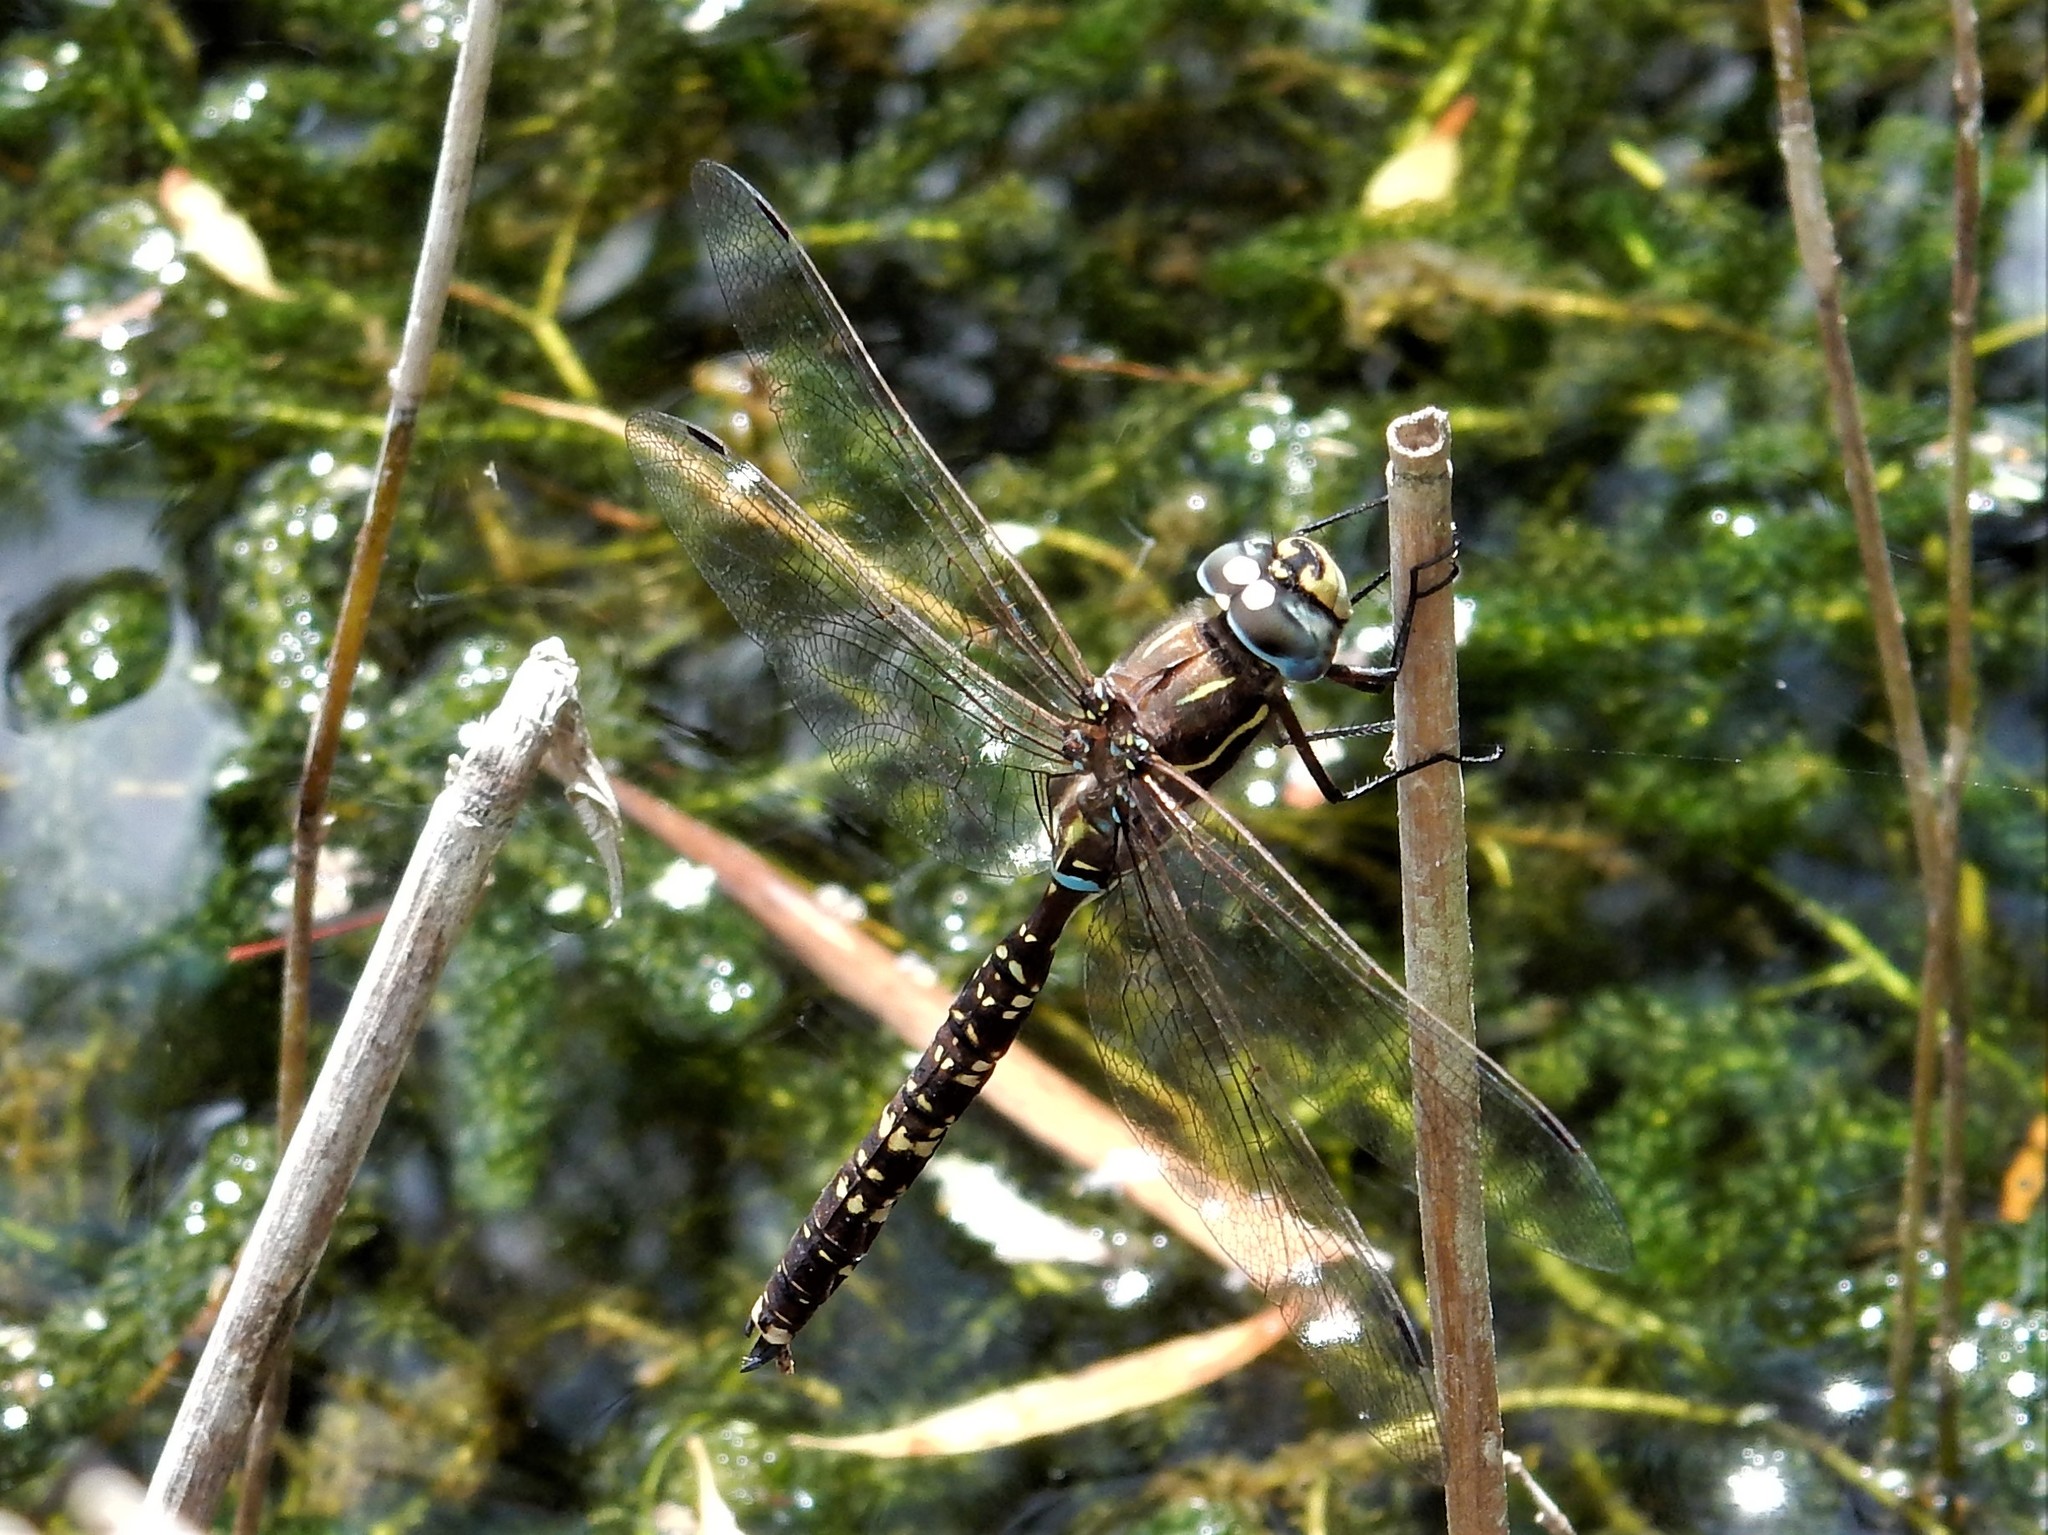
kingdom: Animalia
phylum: Arthropoda
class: Insecta
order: Odonata
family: Aeshnidae
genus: Aeshna
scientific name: Aeshna brevistyla
